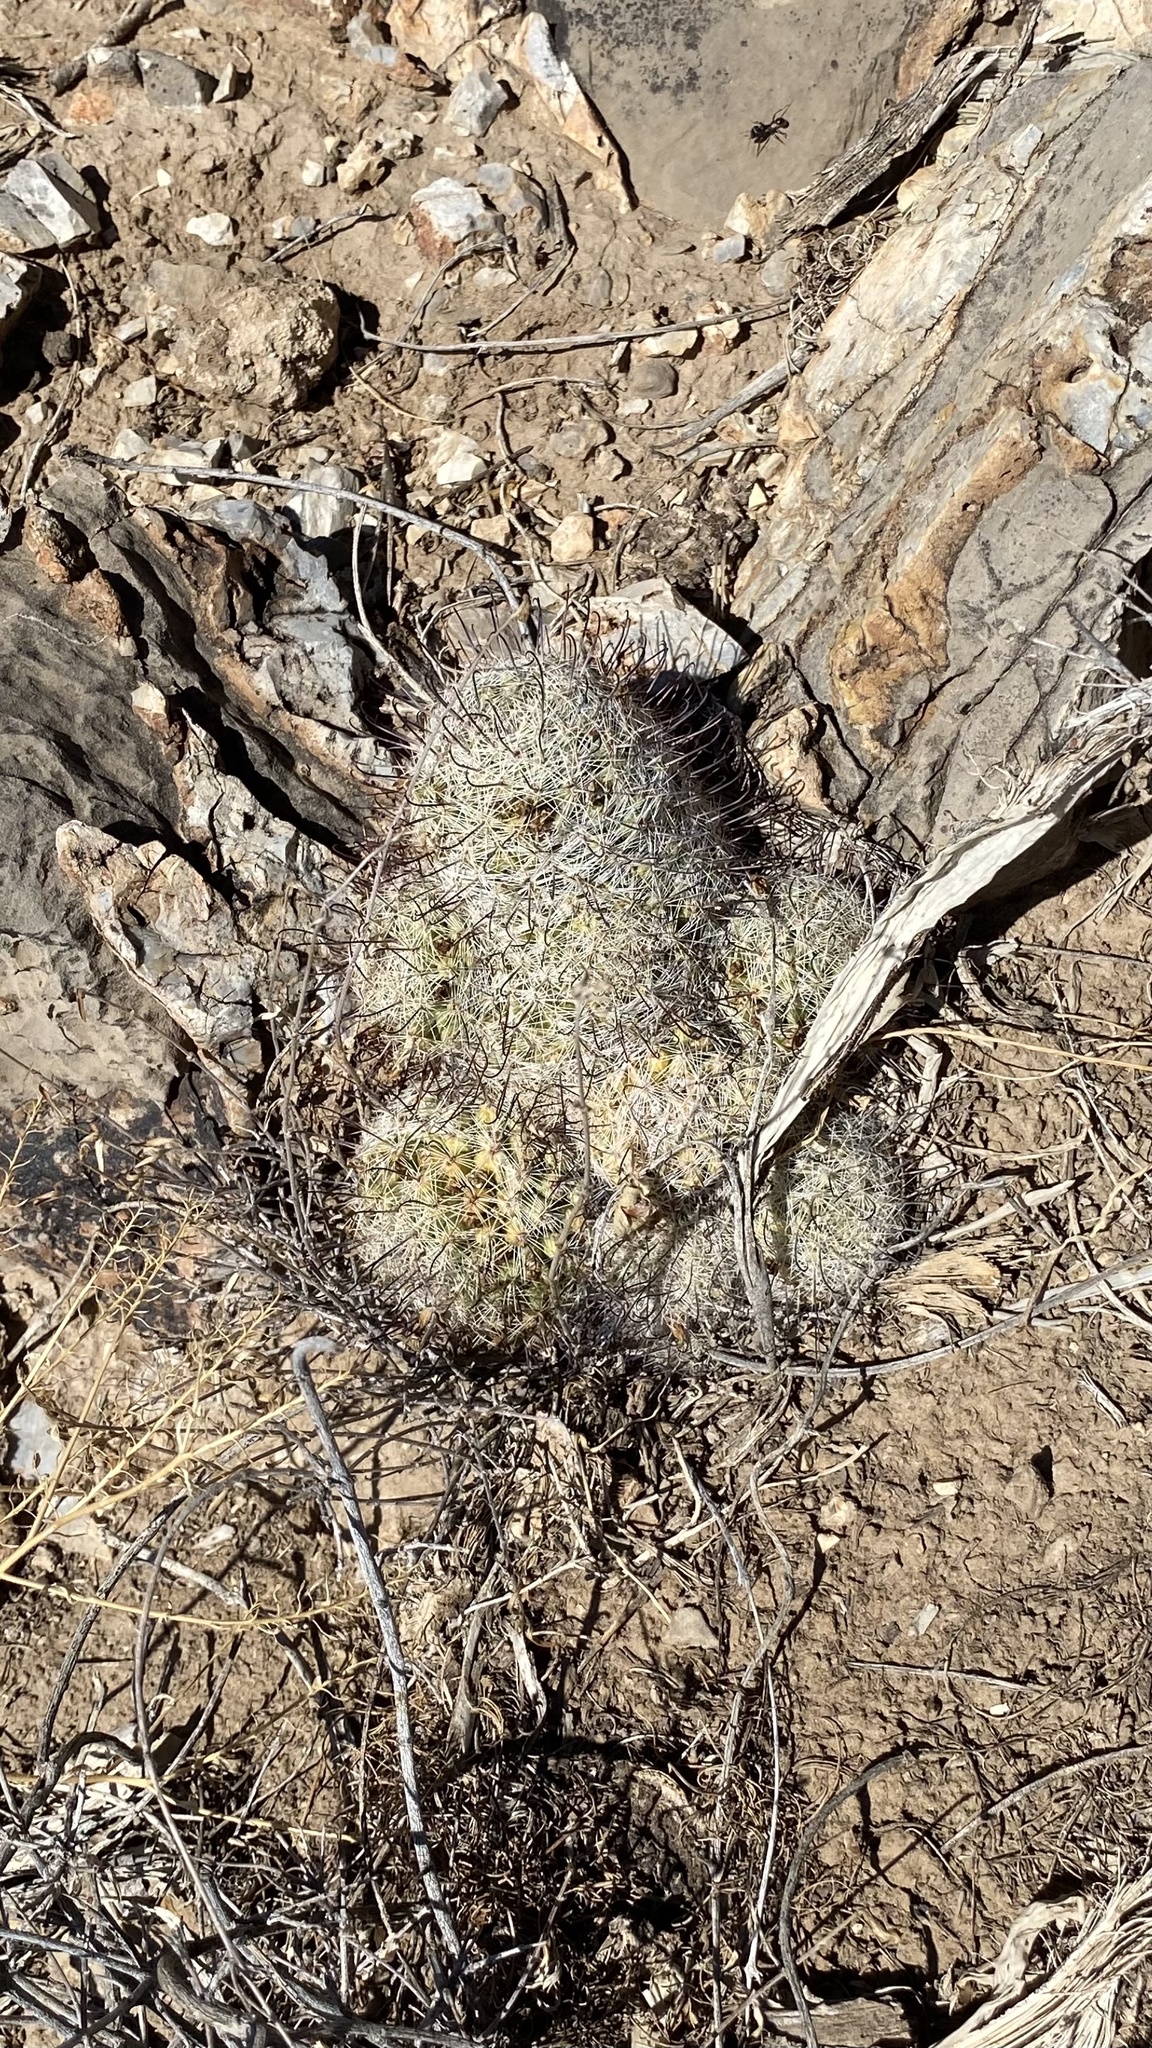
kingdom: Plantae
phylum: Tracheophyta
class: Magnoliopsida
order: Caryophyllales
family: Cactaceae
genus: Cochemiea
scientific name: Cochemiea grahamii
